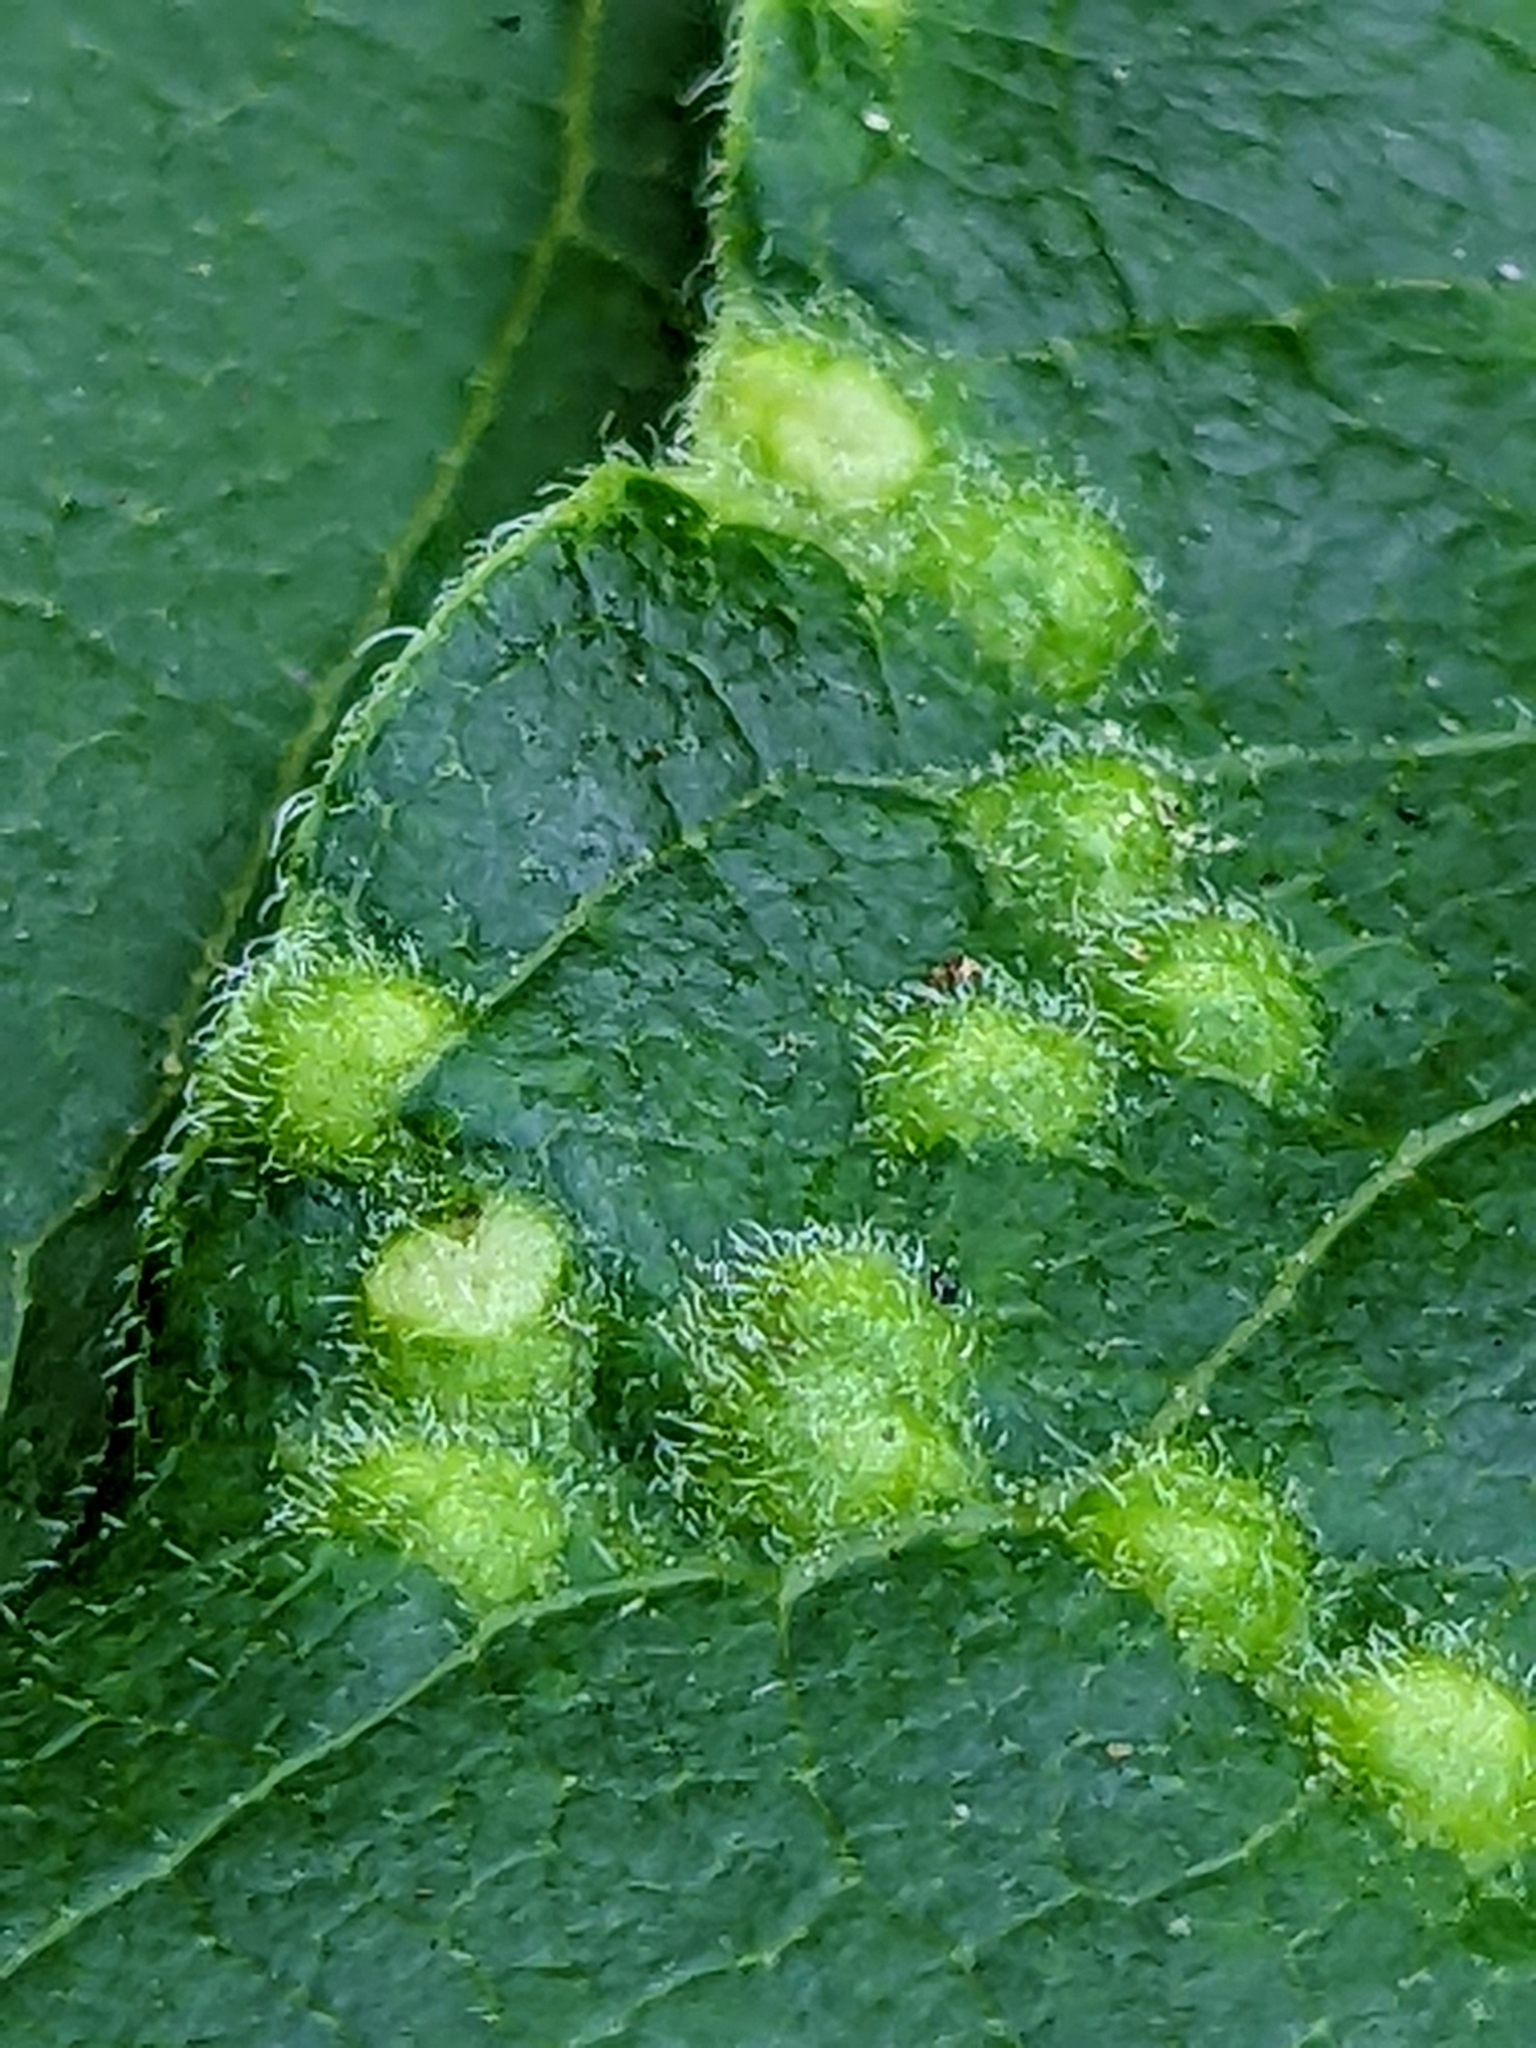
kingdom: Plantae
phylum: Tracheophyta
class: Magnoliopsida
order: Ericales
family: Ebenaceae
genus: Diospyros
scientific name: Diospyros virginiana
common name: Persimmon
